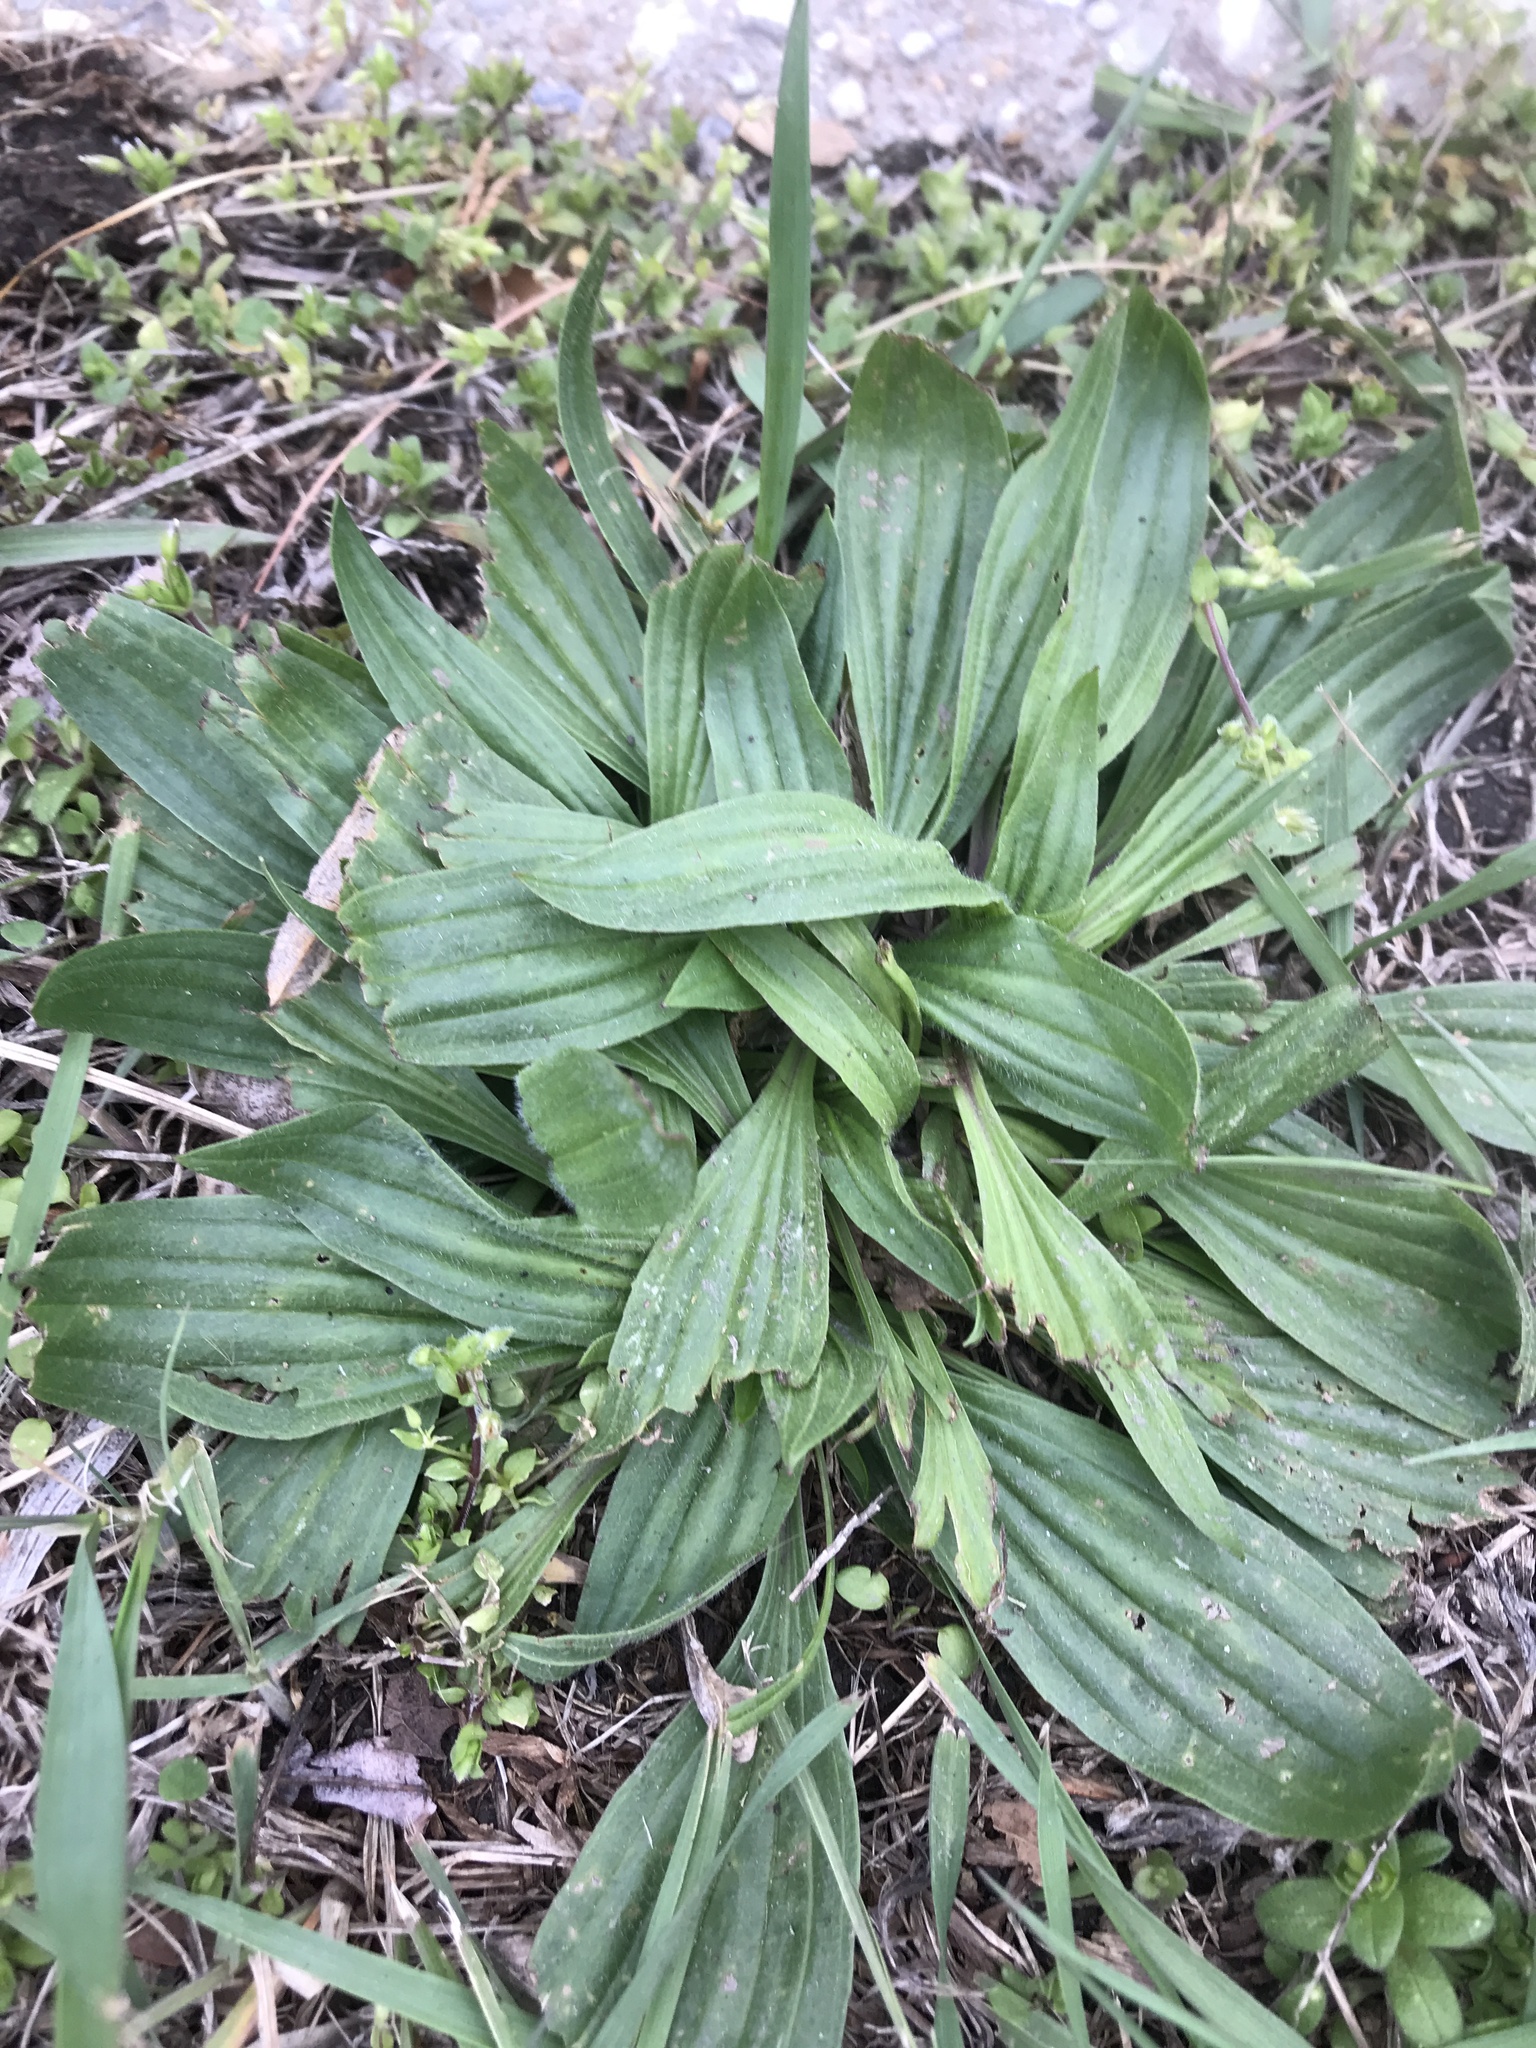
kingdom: Plantae
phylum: Tracheophyta
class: Magnoliopsida
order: Lamiales
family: Plantaginaceae
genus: Plantago
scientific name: Plantago lanceolata
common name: Ribwort plantain
